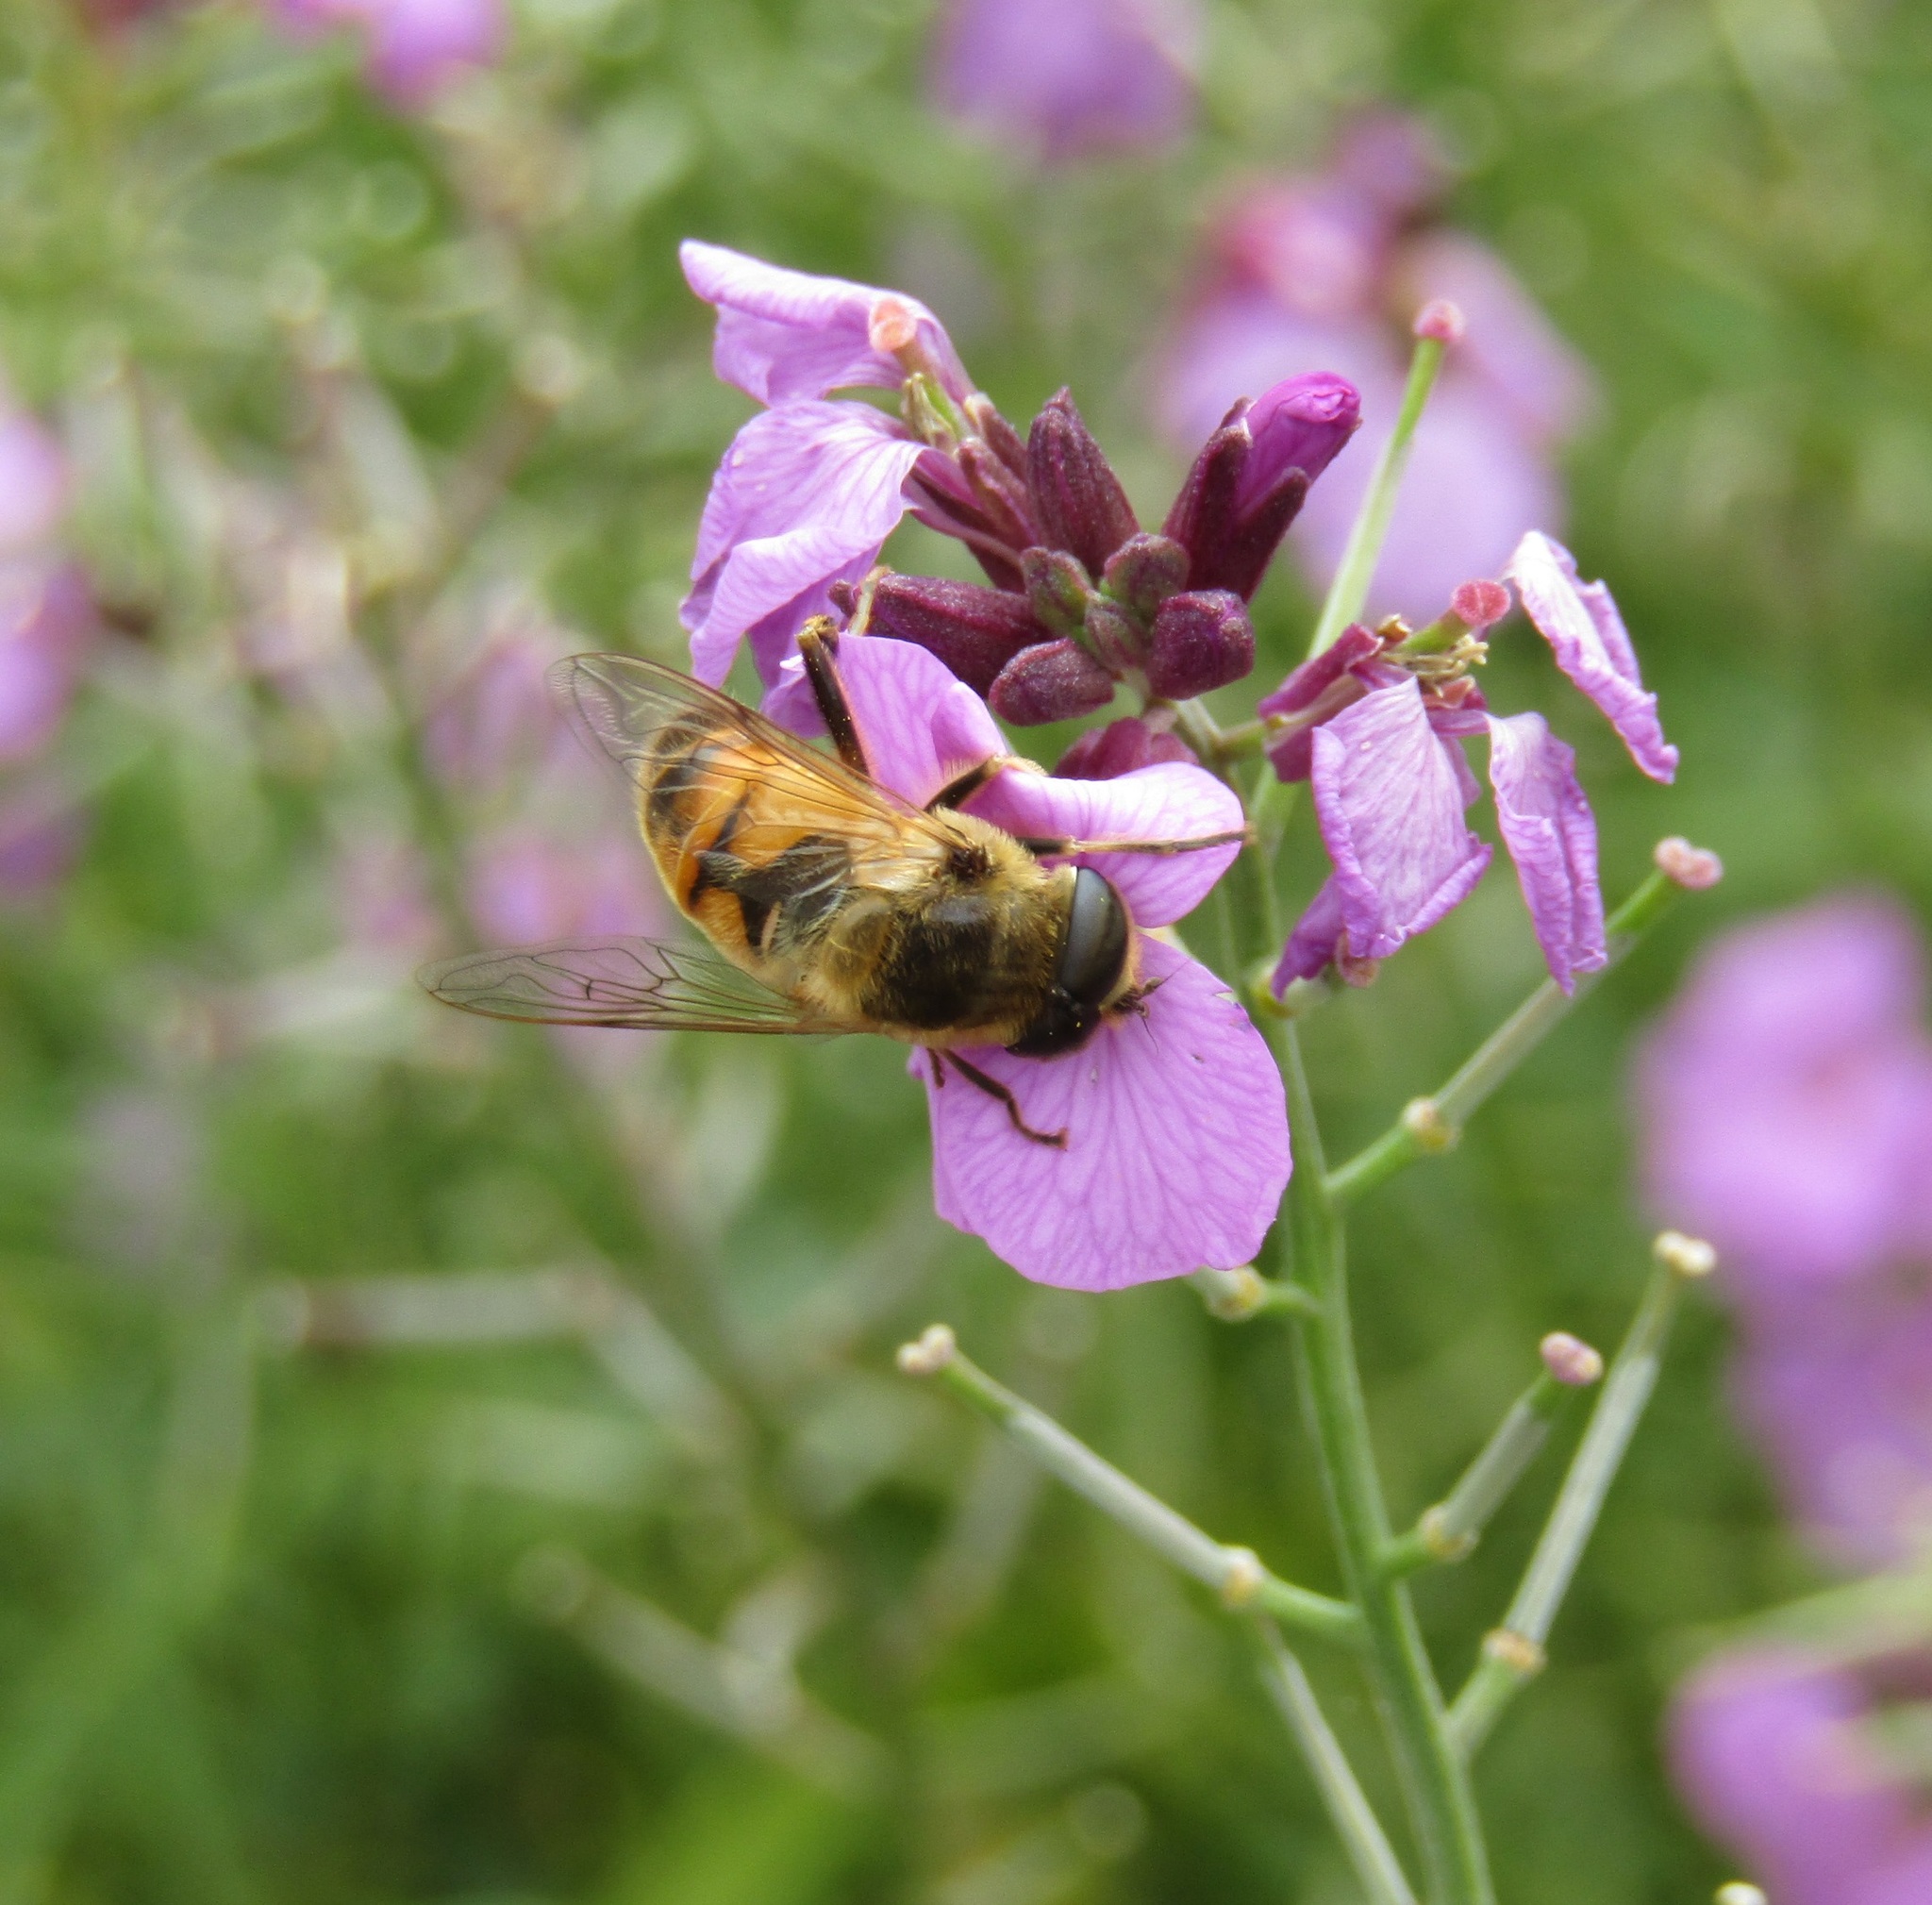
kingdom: Animalia
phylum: Arthropoda
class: Insecta
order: Diptera
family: Syrphidae
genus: Eristalis
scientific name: Eristalis tenax
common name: Drone fly
